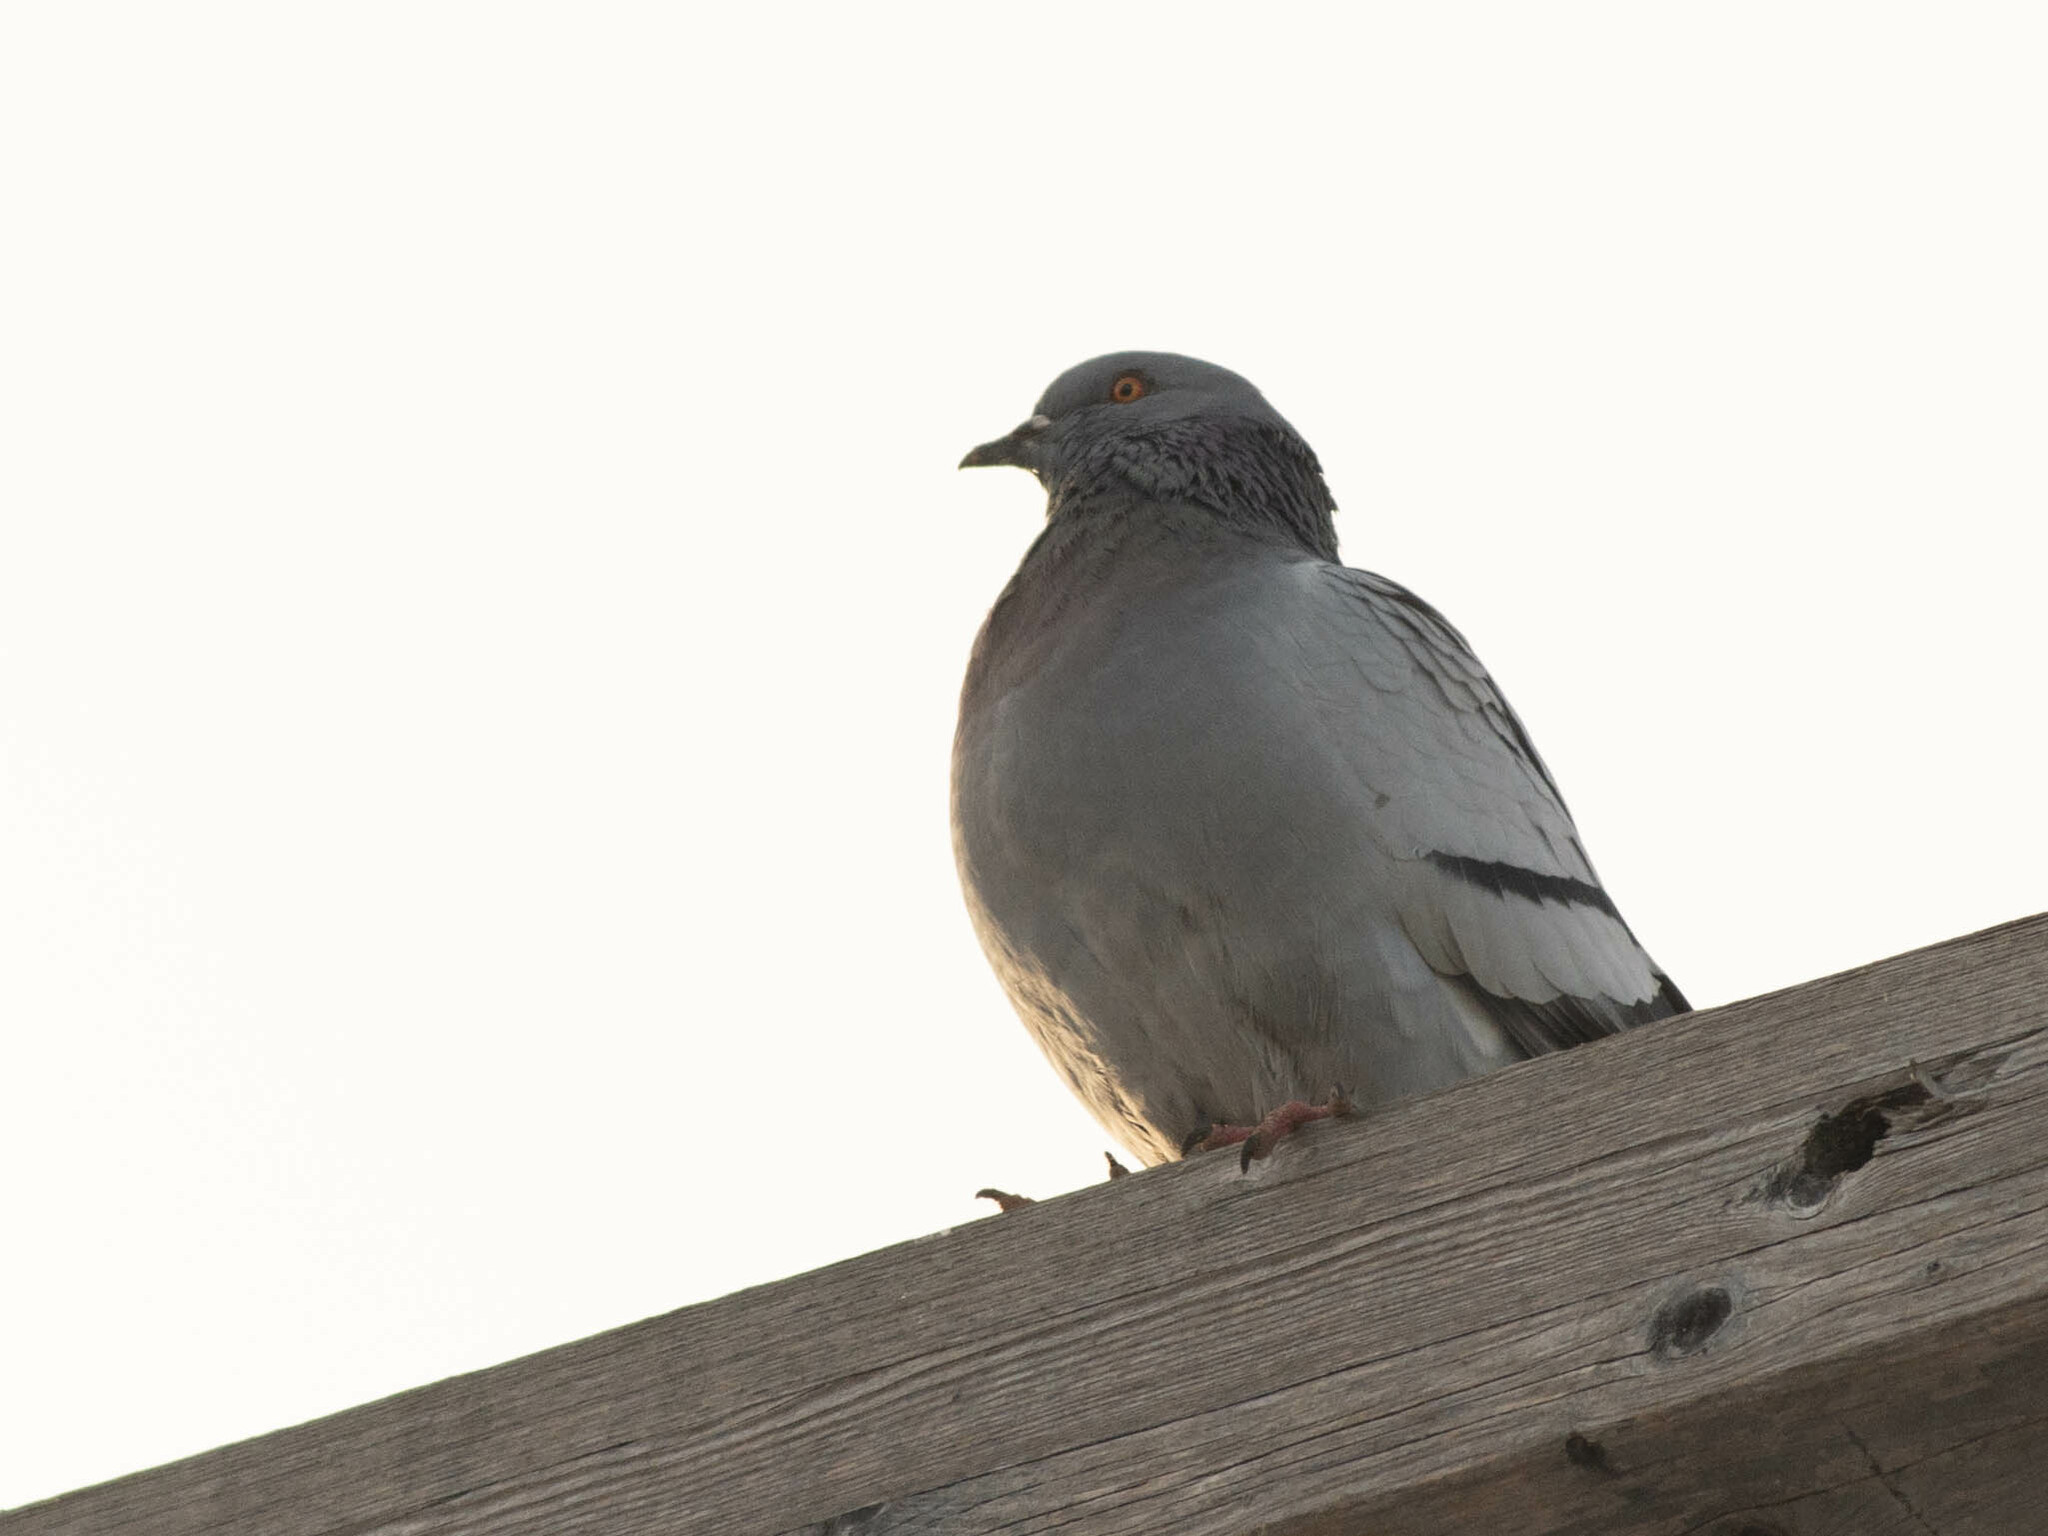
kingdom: Animalia
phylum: Chordata
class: Aves
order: Columbiformes
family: Columbidae
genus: Columba
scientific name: Columba livia
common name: Rock pigeon
